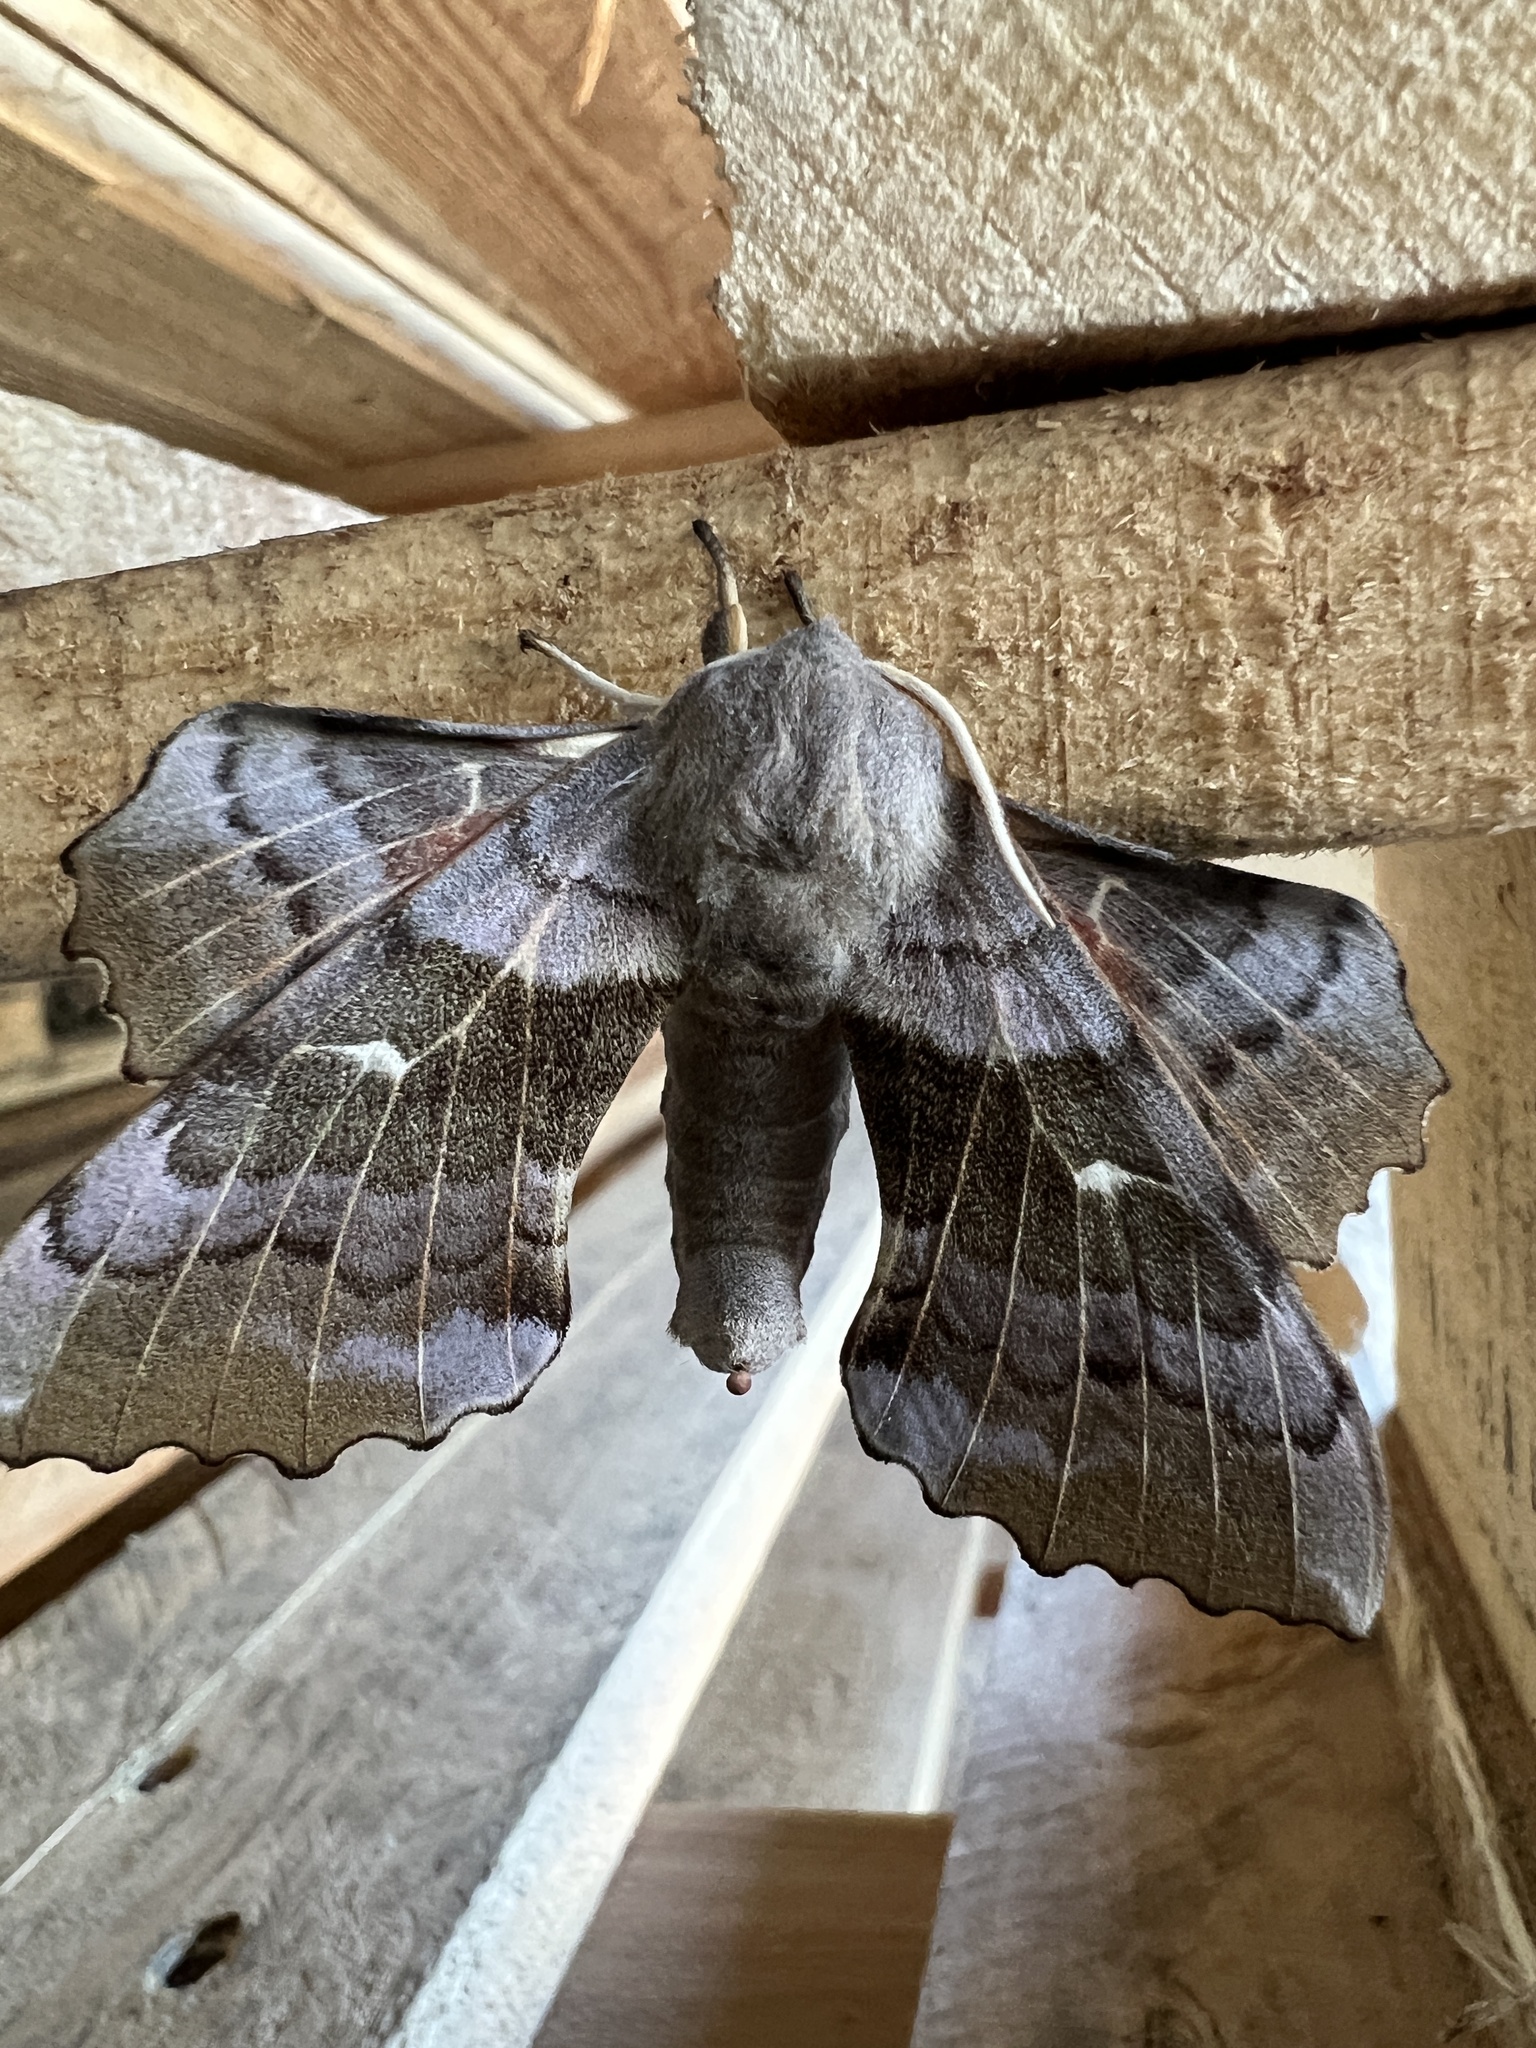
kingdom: Animalia
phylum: Arthropoda
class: Insecta
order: Lepidoptera
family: Sphingidae
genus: Laothoe
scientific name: Laothoe populi
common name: Poplar hawk-moth
